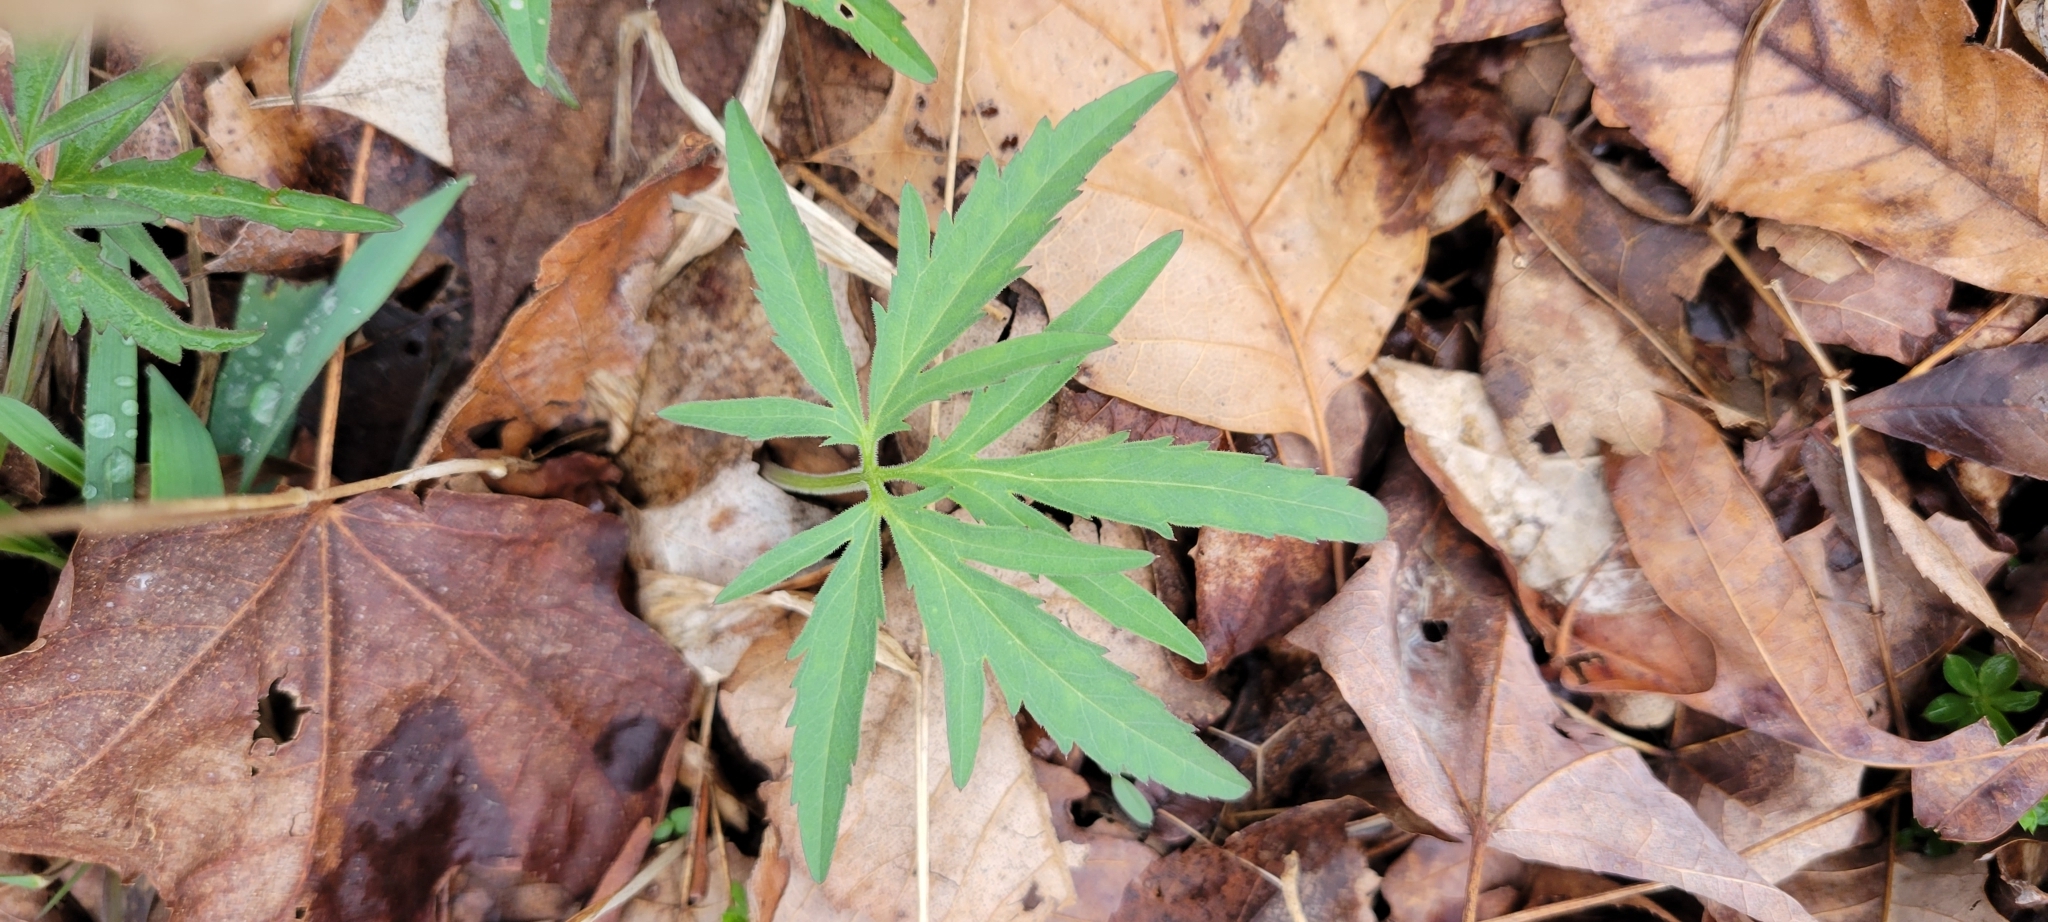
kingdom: Plantae
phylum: Tracheophyta
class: Magnoliopsida
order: Brassicales
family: Brassicaceae
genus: Cardamine
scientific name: Cardamine concatenata
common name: Cut-leaf toothcup
